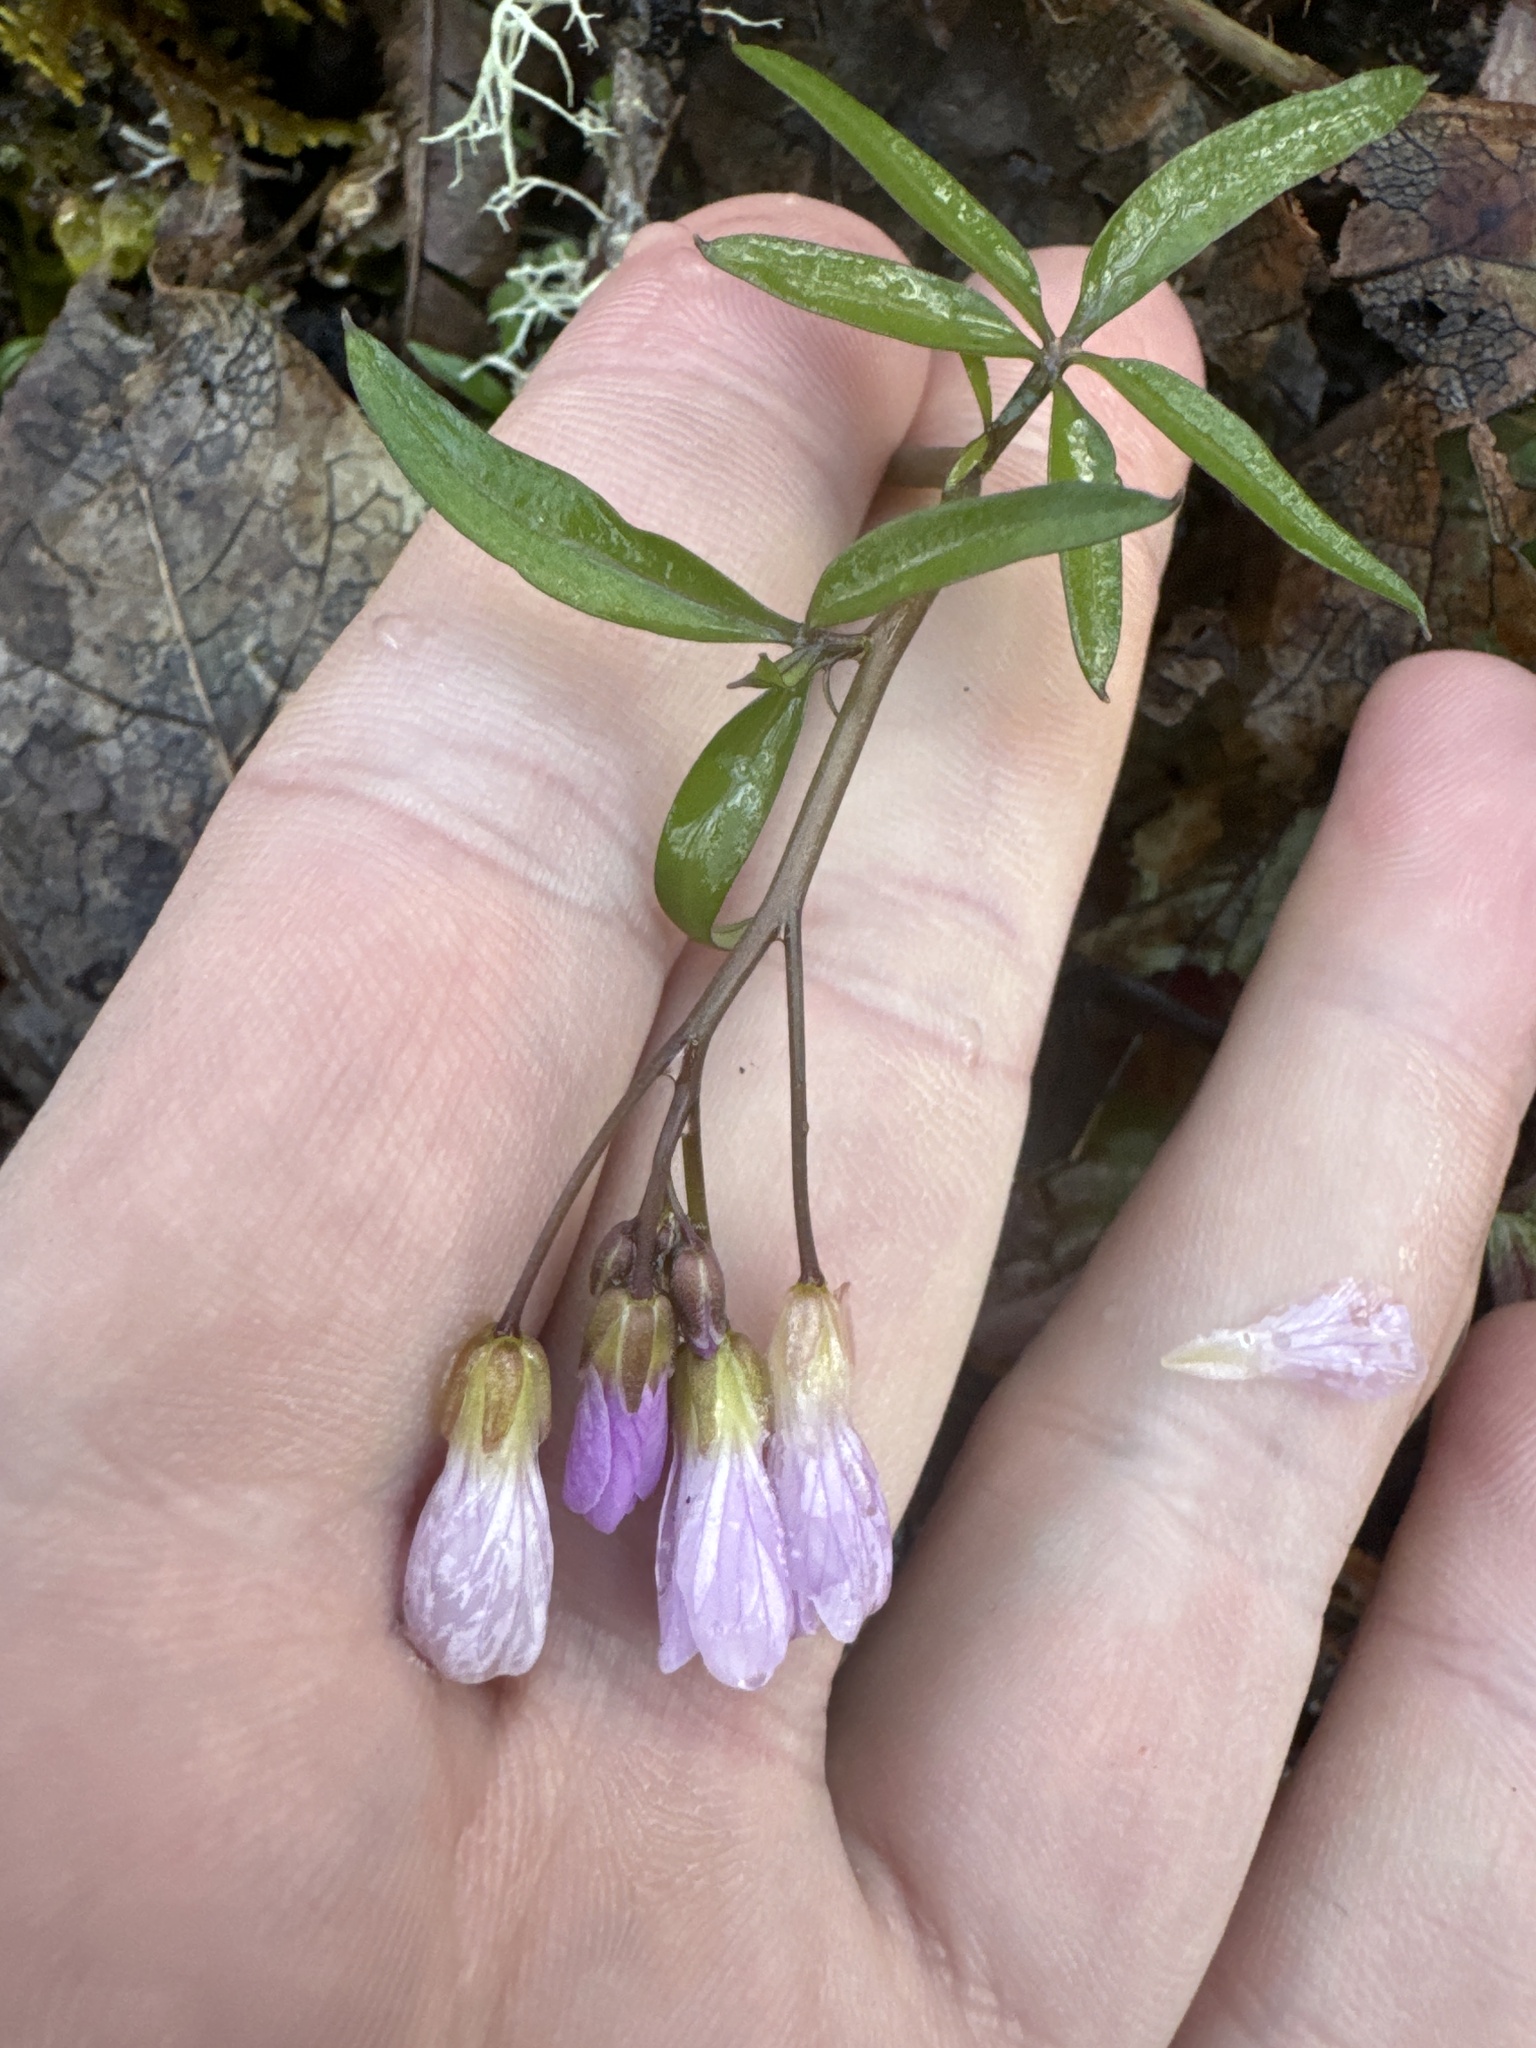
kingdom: Plantae
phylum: Tracheophyta
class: Magnoliopsida
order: Brassicales
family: Brassicaceae
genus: Cardamine
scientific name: Cardamine nuttallii
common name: Nuttall's toothwort
